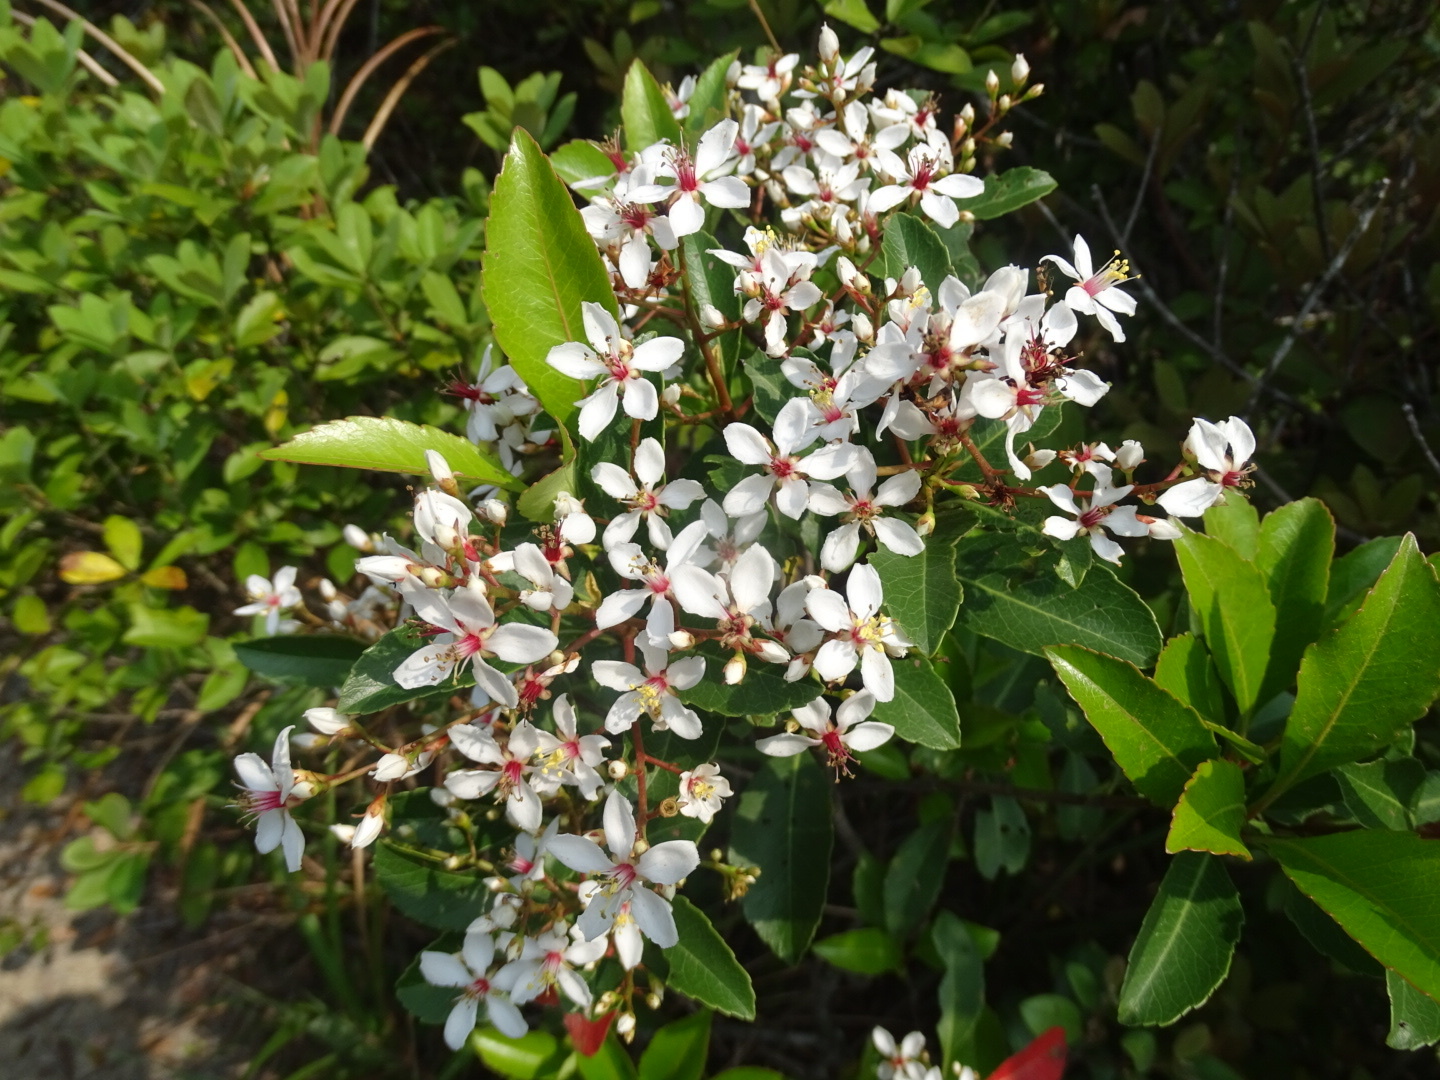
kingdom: Plantae
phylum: Tracheophyta
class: Magnoliopsida
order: Rosales
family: Rosaceae
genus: Rhaphiolepis
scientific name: Rhaphiolepis indica
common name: India-hawthorn
